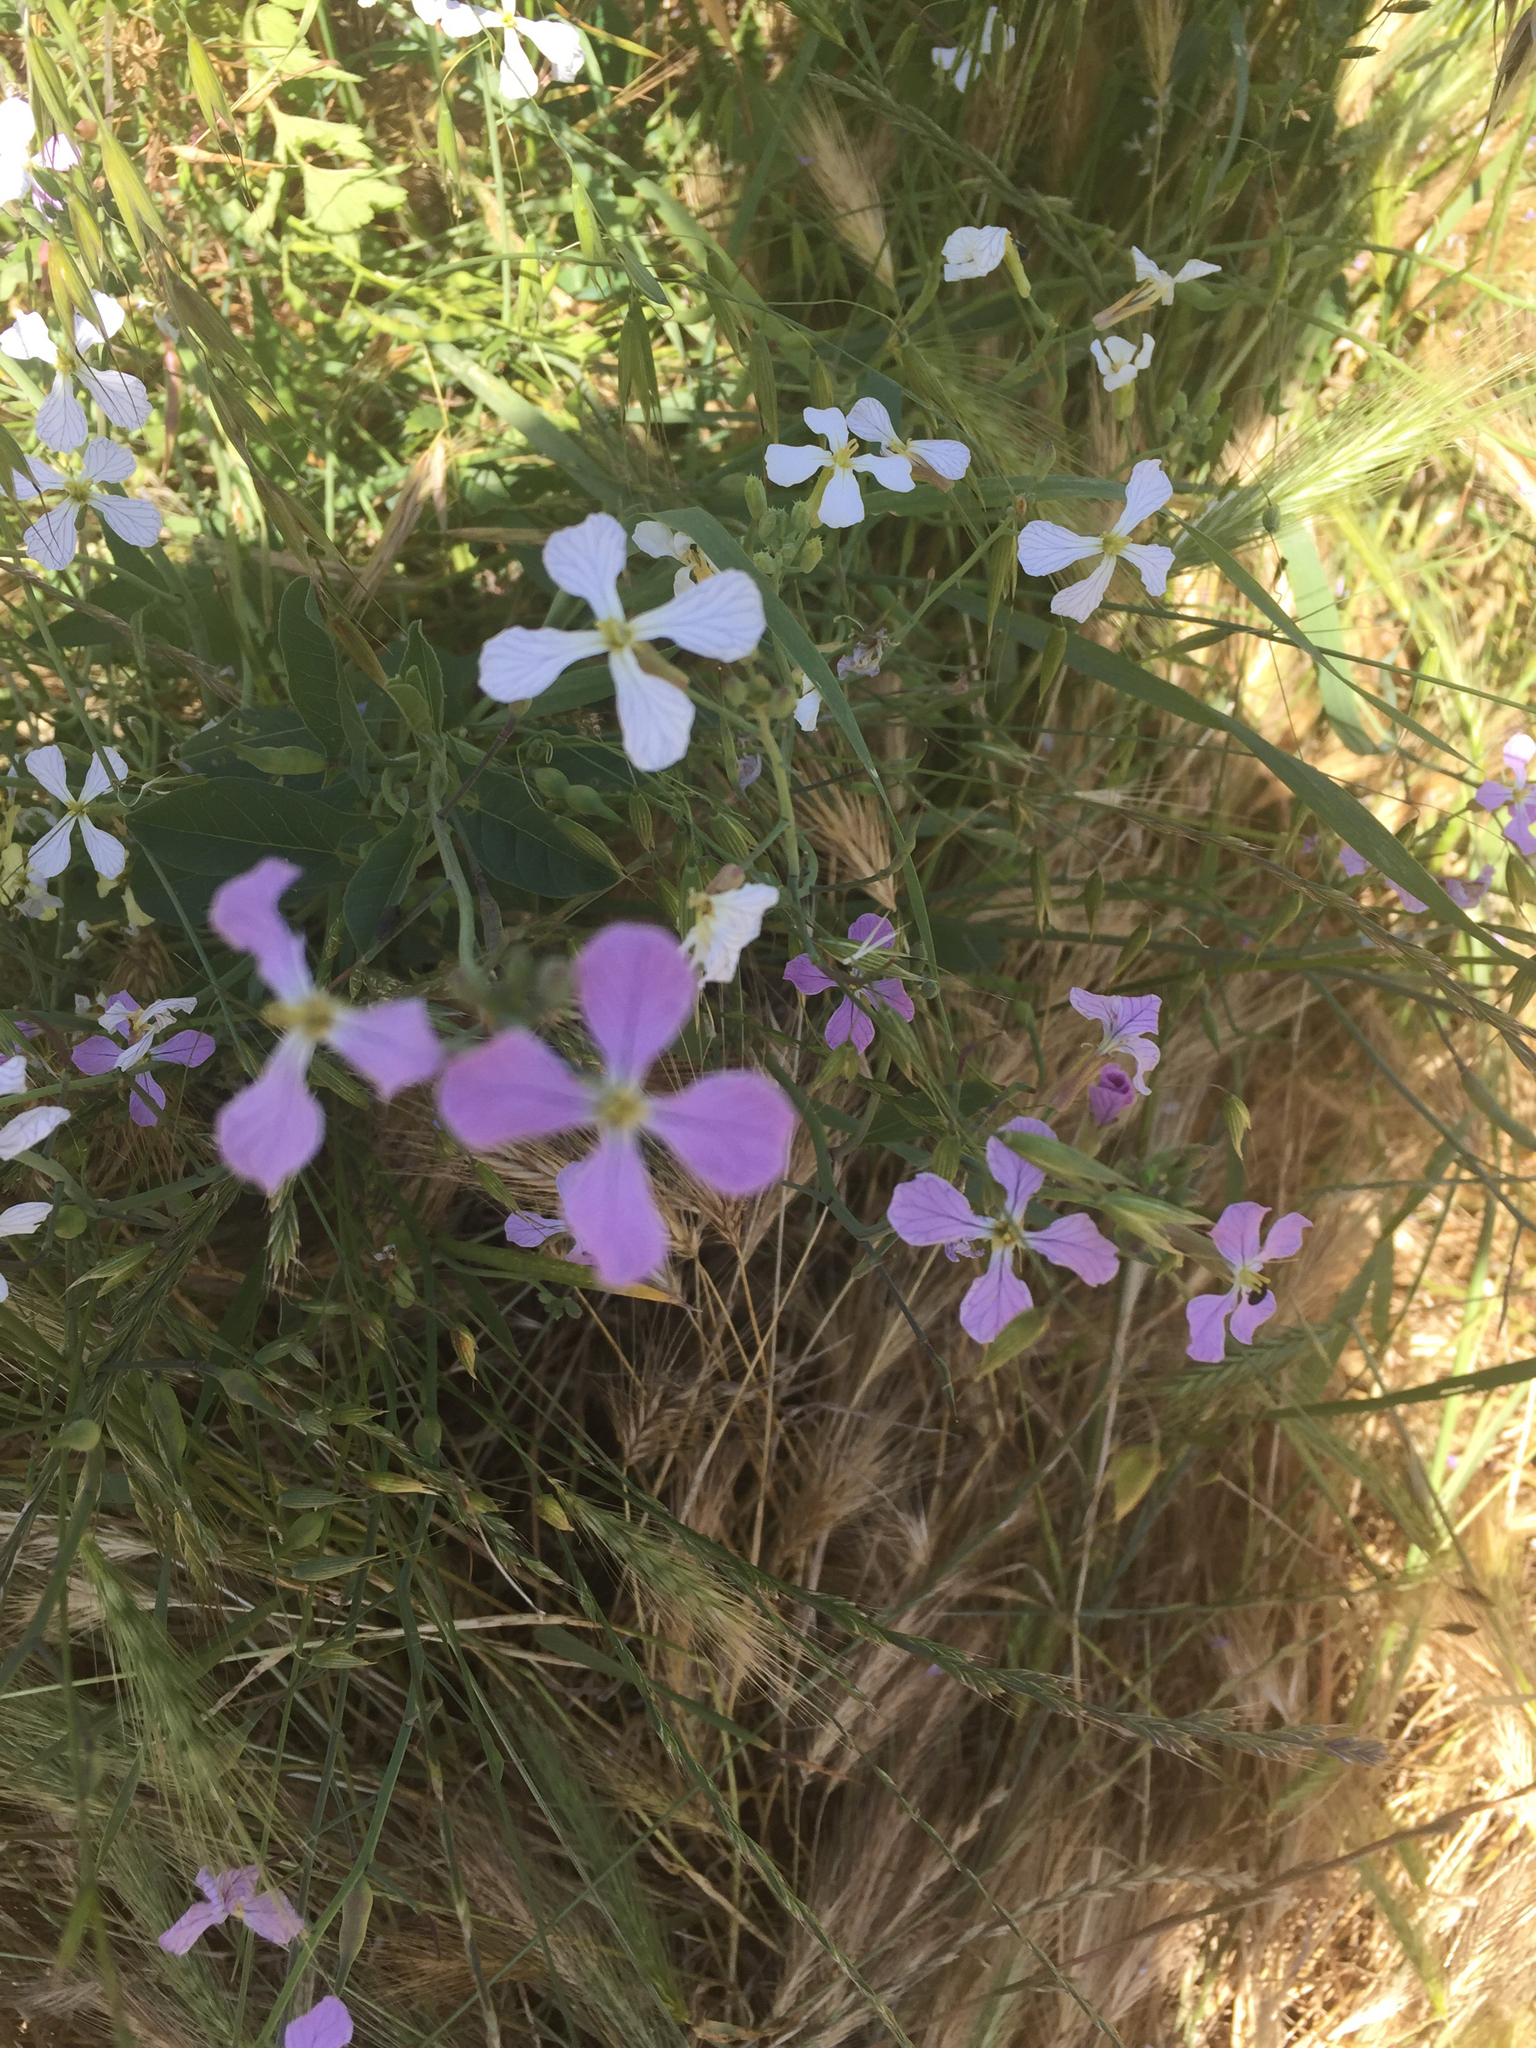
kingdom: Plantae
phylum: Tracheophyta
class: Magnoliopsida
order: Brassicales
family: Brassicaceae
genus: Raphanus
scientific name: Raphanus sativus
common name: Cultivated radish
